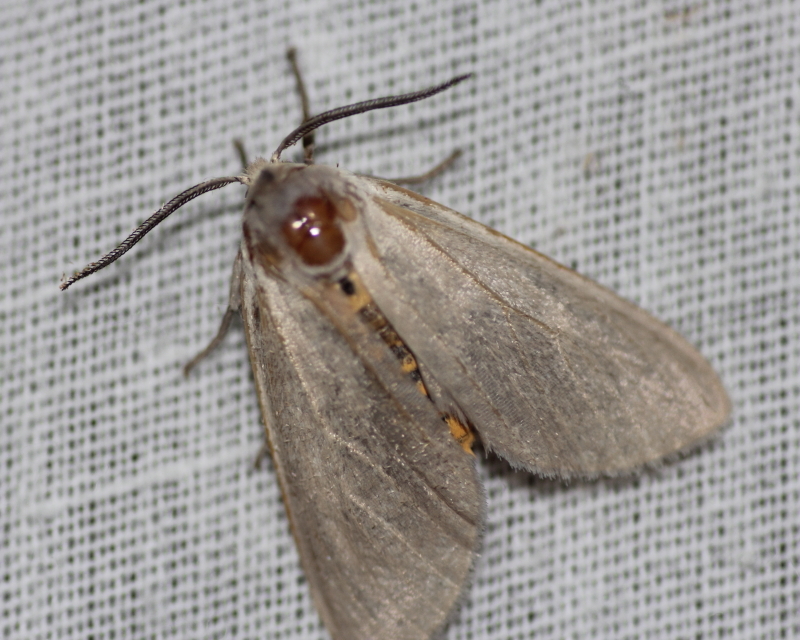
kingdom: Animalia
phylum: Arthropoda
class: Insecta
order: Lepidoptera
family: Erebidae
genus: Euchaetes
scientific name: Euchaetes egle
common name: Milkweed tussock moth
